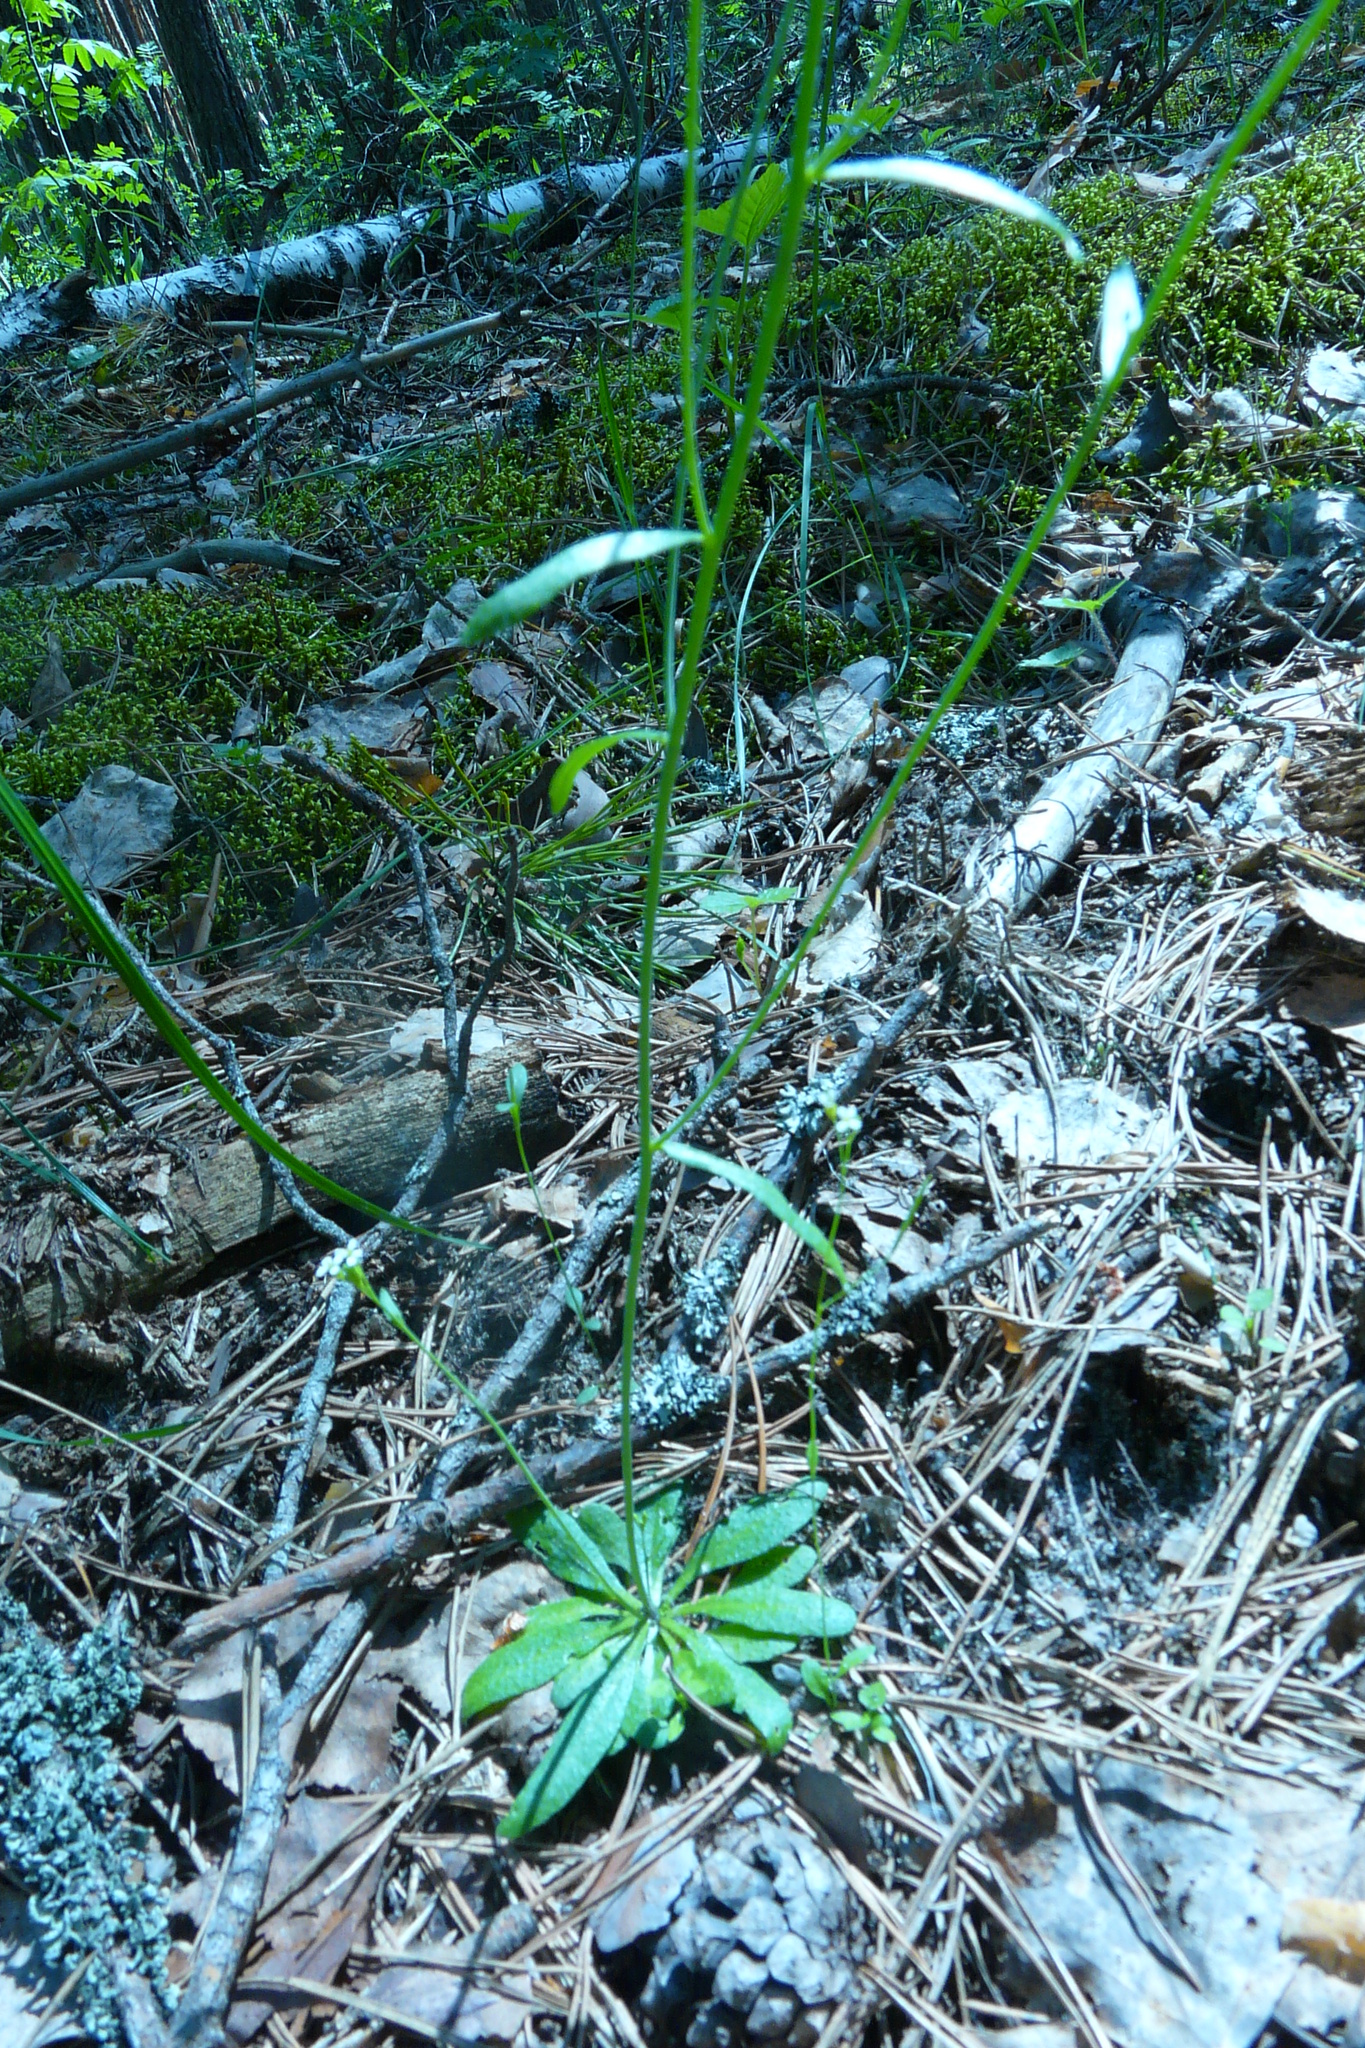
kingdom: Plantae
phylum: Tracheophyta
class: Magnoliopsida
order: Brassicales
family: Brassicaceae
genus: Arabidopsis
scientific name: Arabidopsis thaliana
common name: Thale cress
